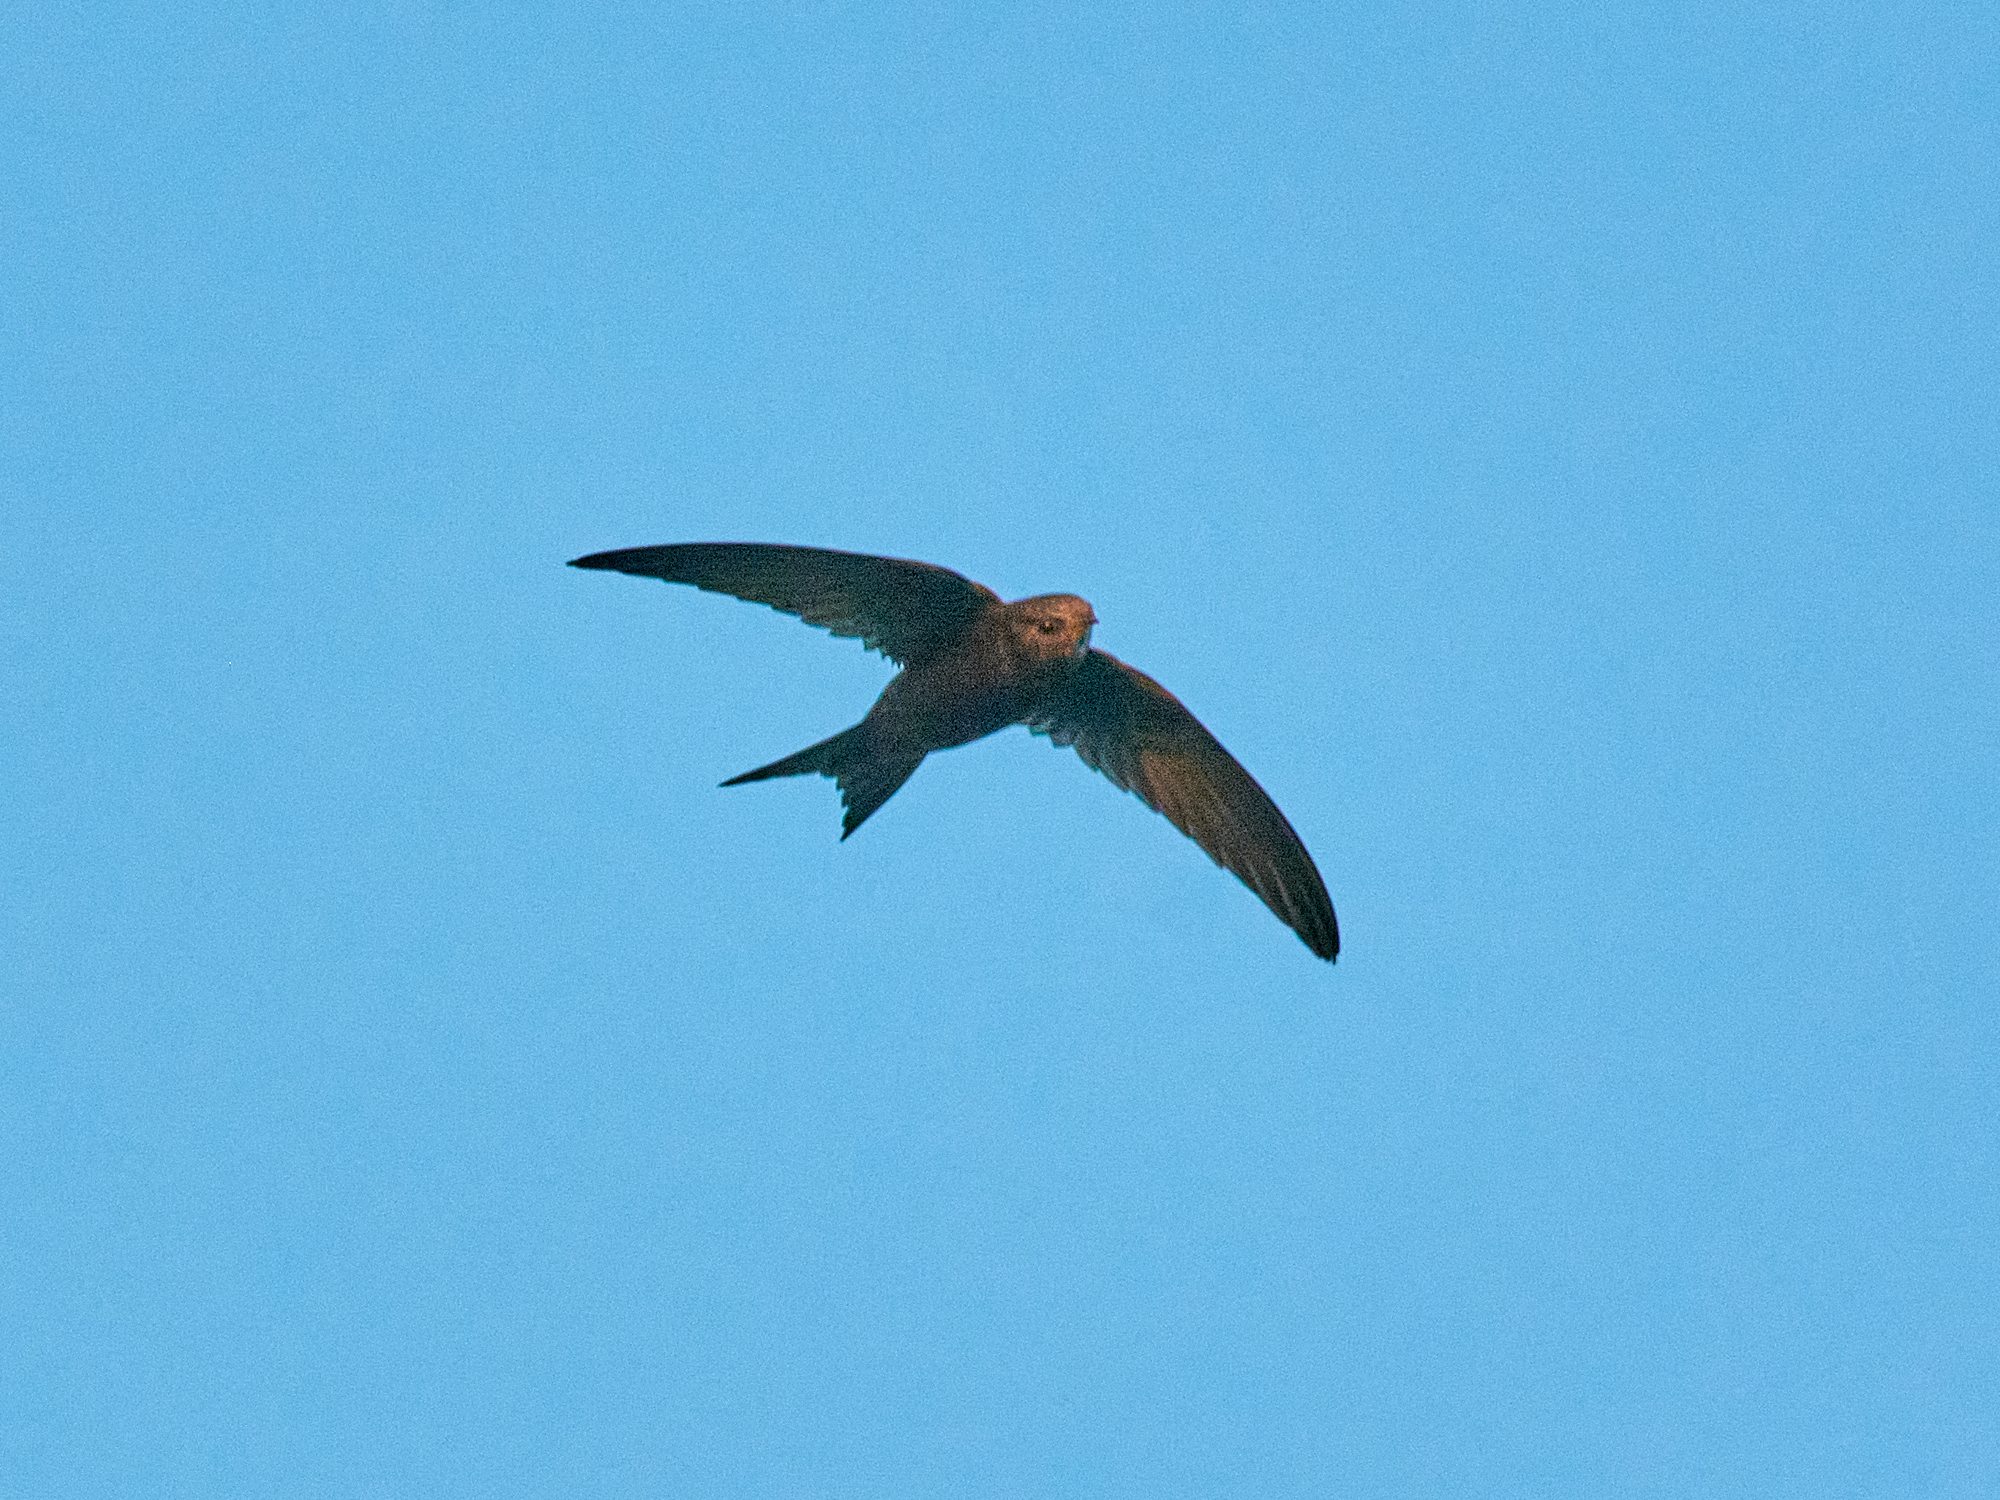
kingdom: Animalia
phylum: Chordata
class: Aves
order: Apodiformes
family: Apodidae
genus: Apus
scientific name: Apus apus
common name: Common swift
